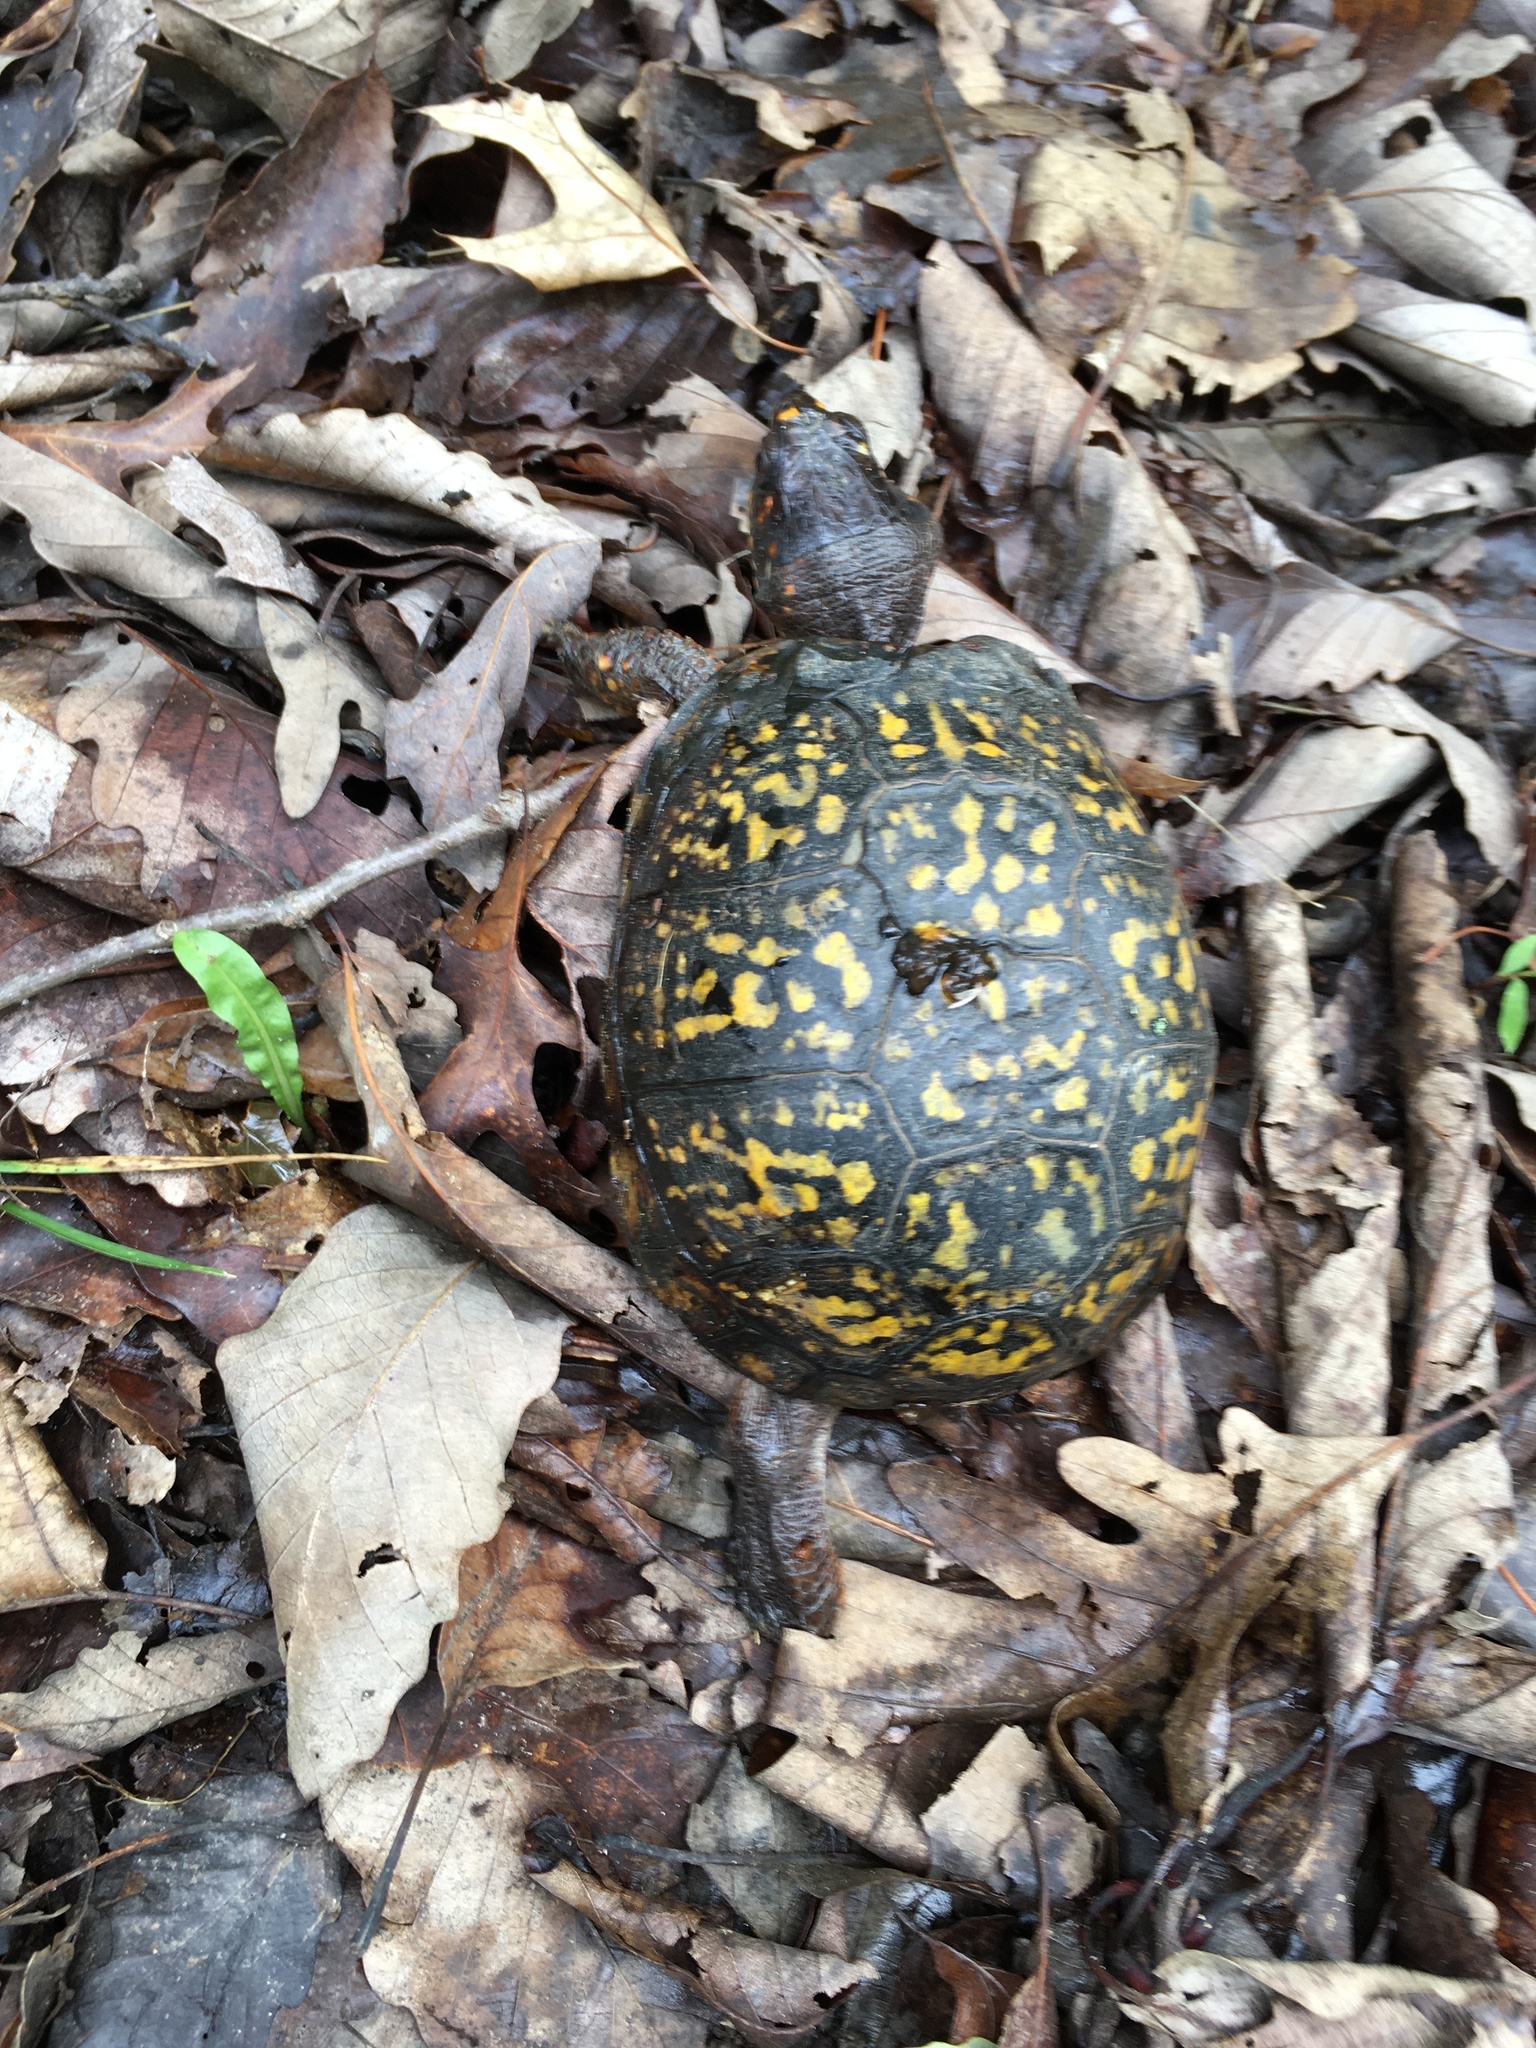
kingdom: Animalia
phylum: Chordata
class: Testudines
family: Emydidae
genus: Terrapene
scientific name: Terrapene carolina
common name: Common box turtle
